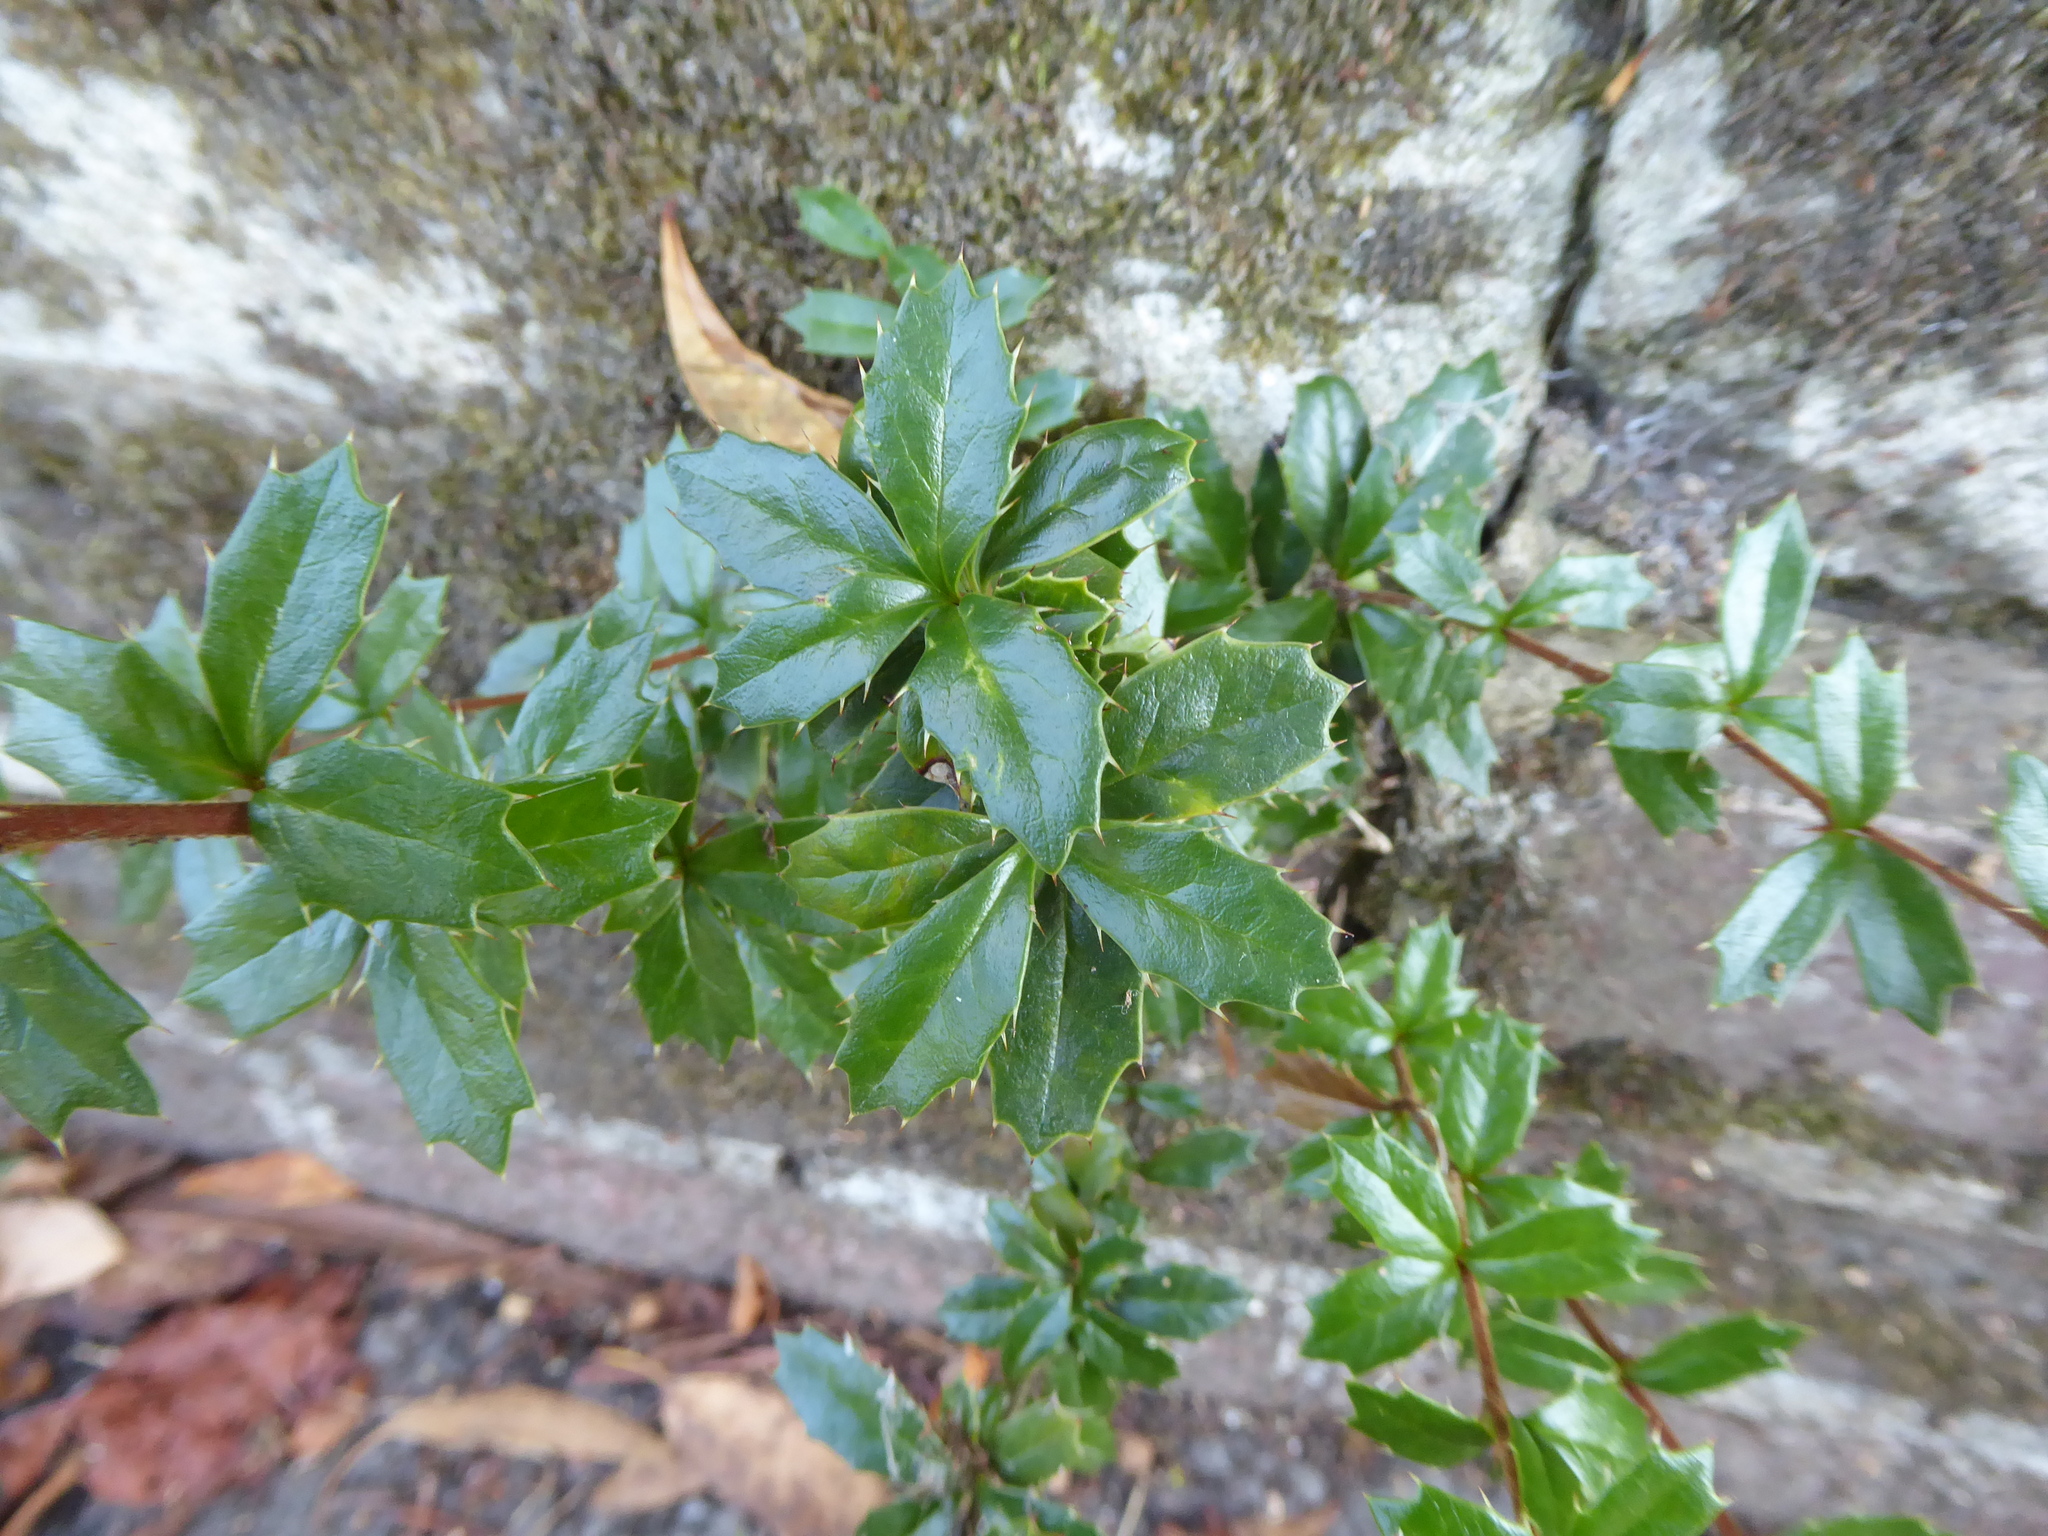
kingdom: Plantae
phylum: Tracheophyta
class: Magnoliopsida
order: Ranunculales
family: Berberidaceae
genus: Berberis
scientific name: Berberis darwinii
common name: Darwin's barberry
